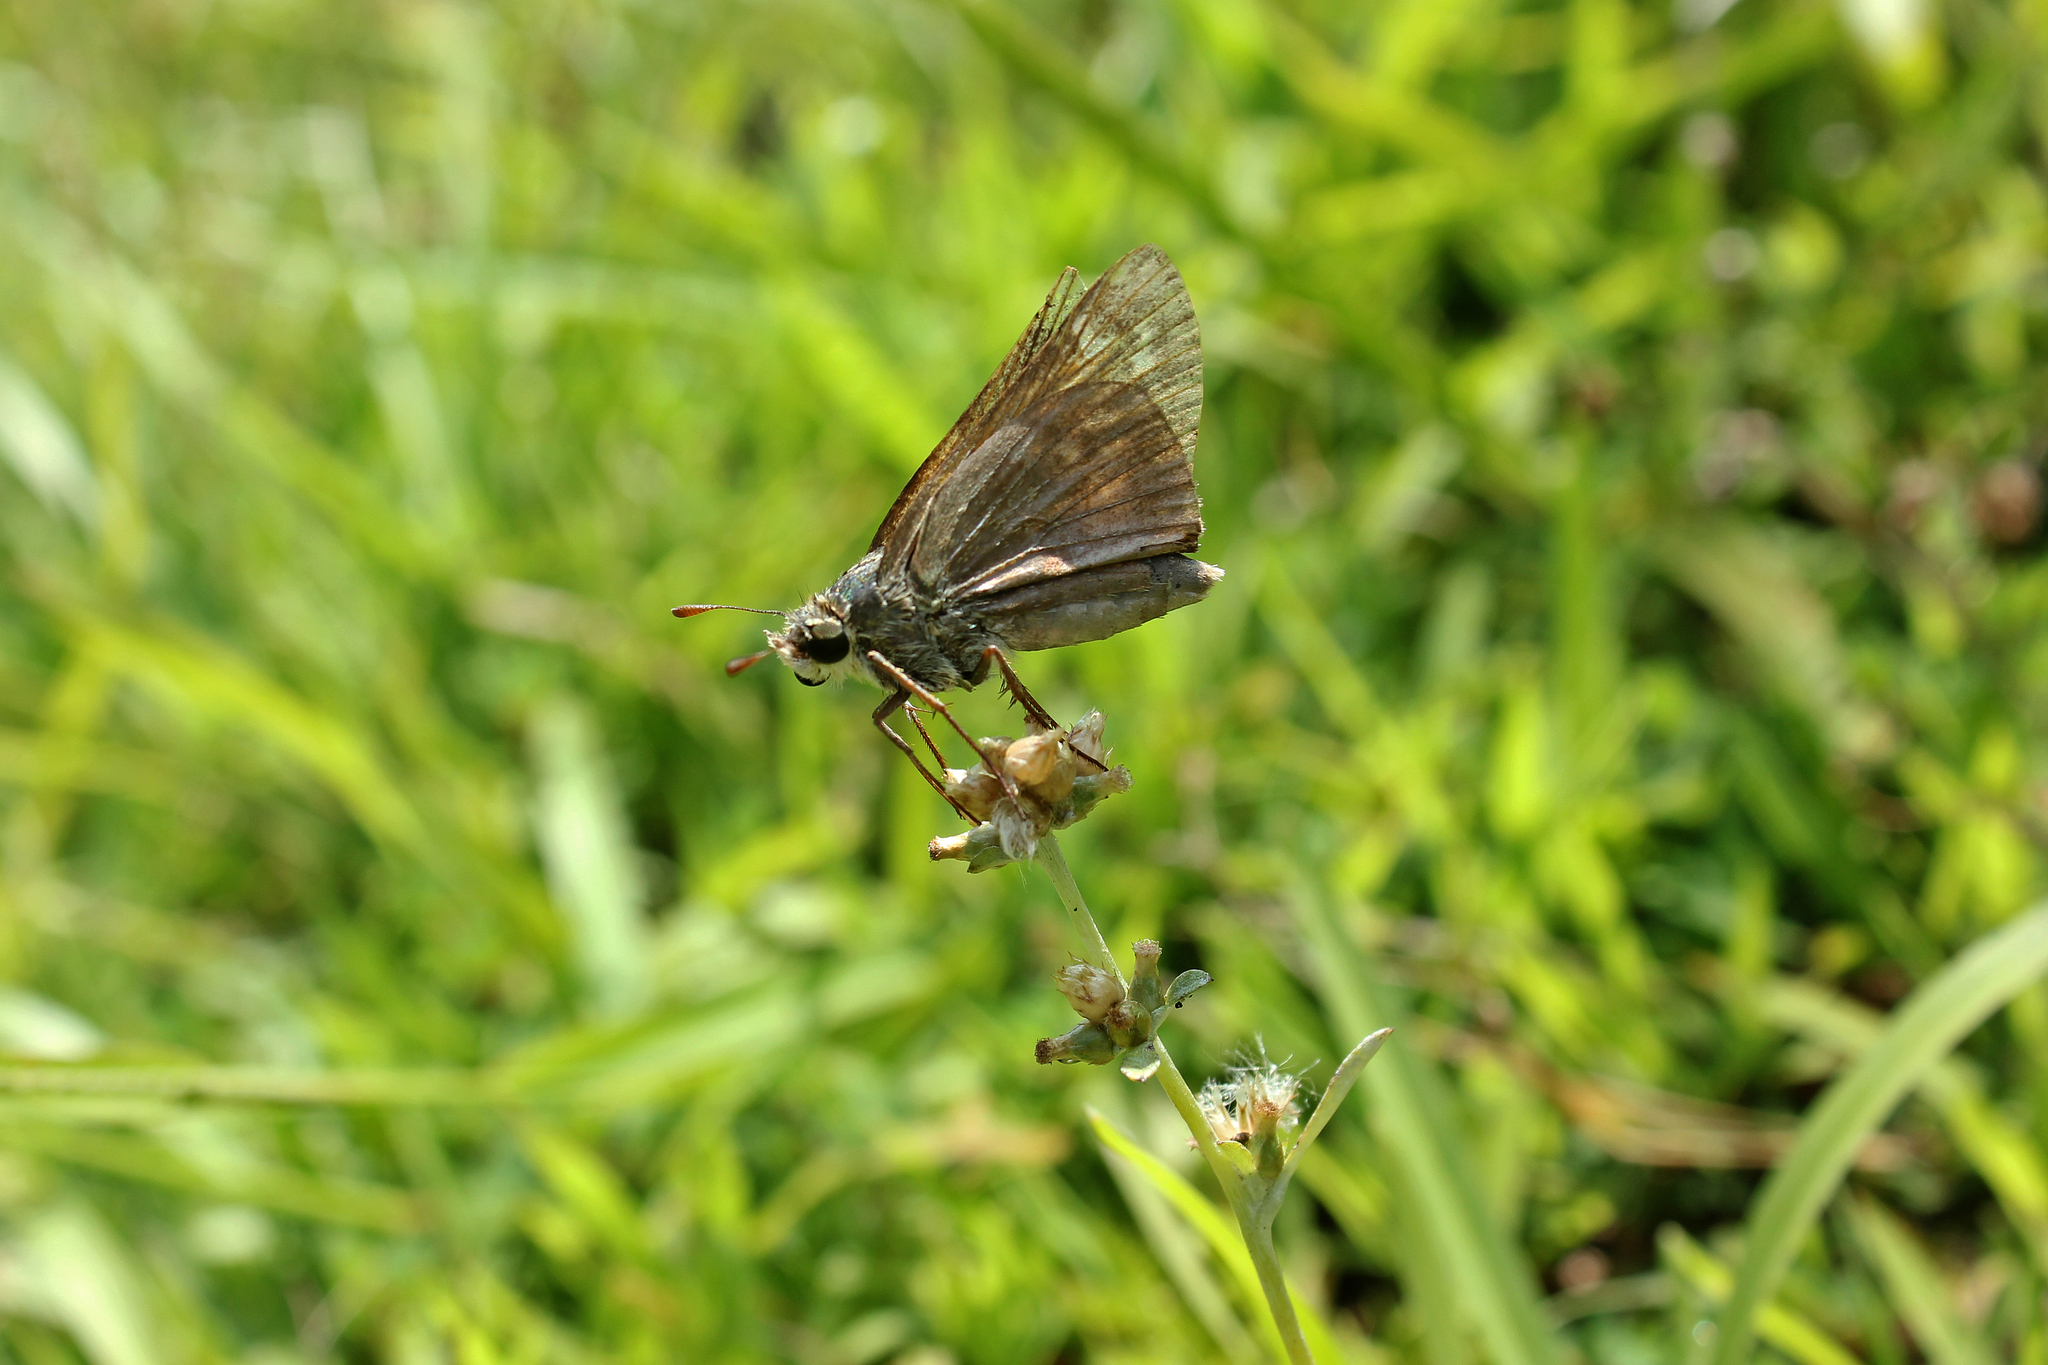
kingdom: Animalia
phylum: Arthropoda
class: Insecta
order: Lepidoptera
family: Hesperiidae
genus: Atalopedes
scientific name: Atalopedes
